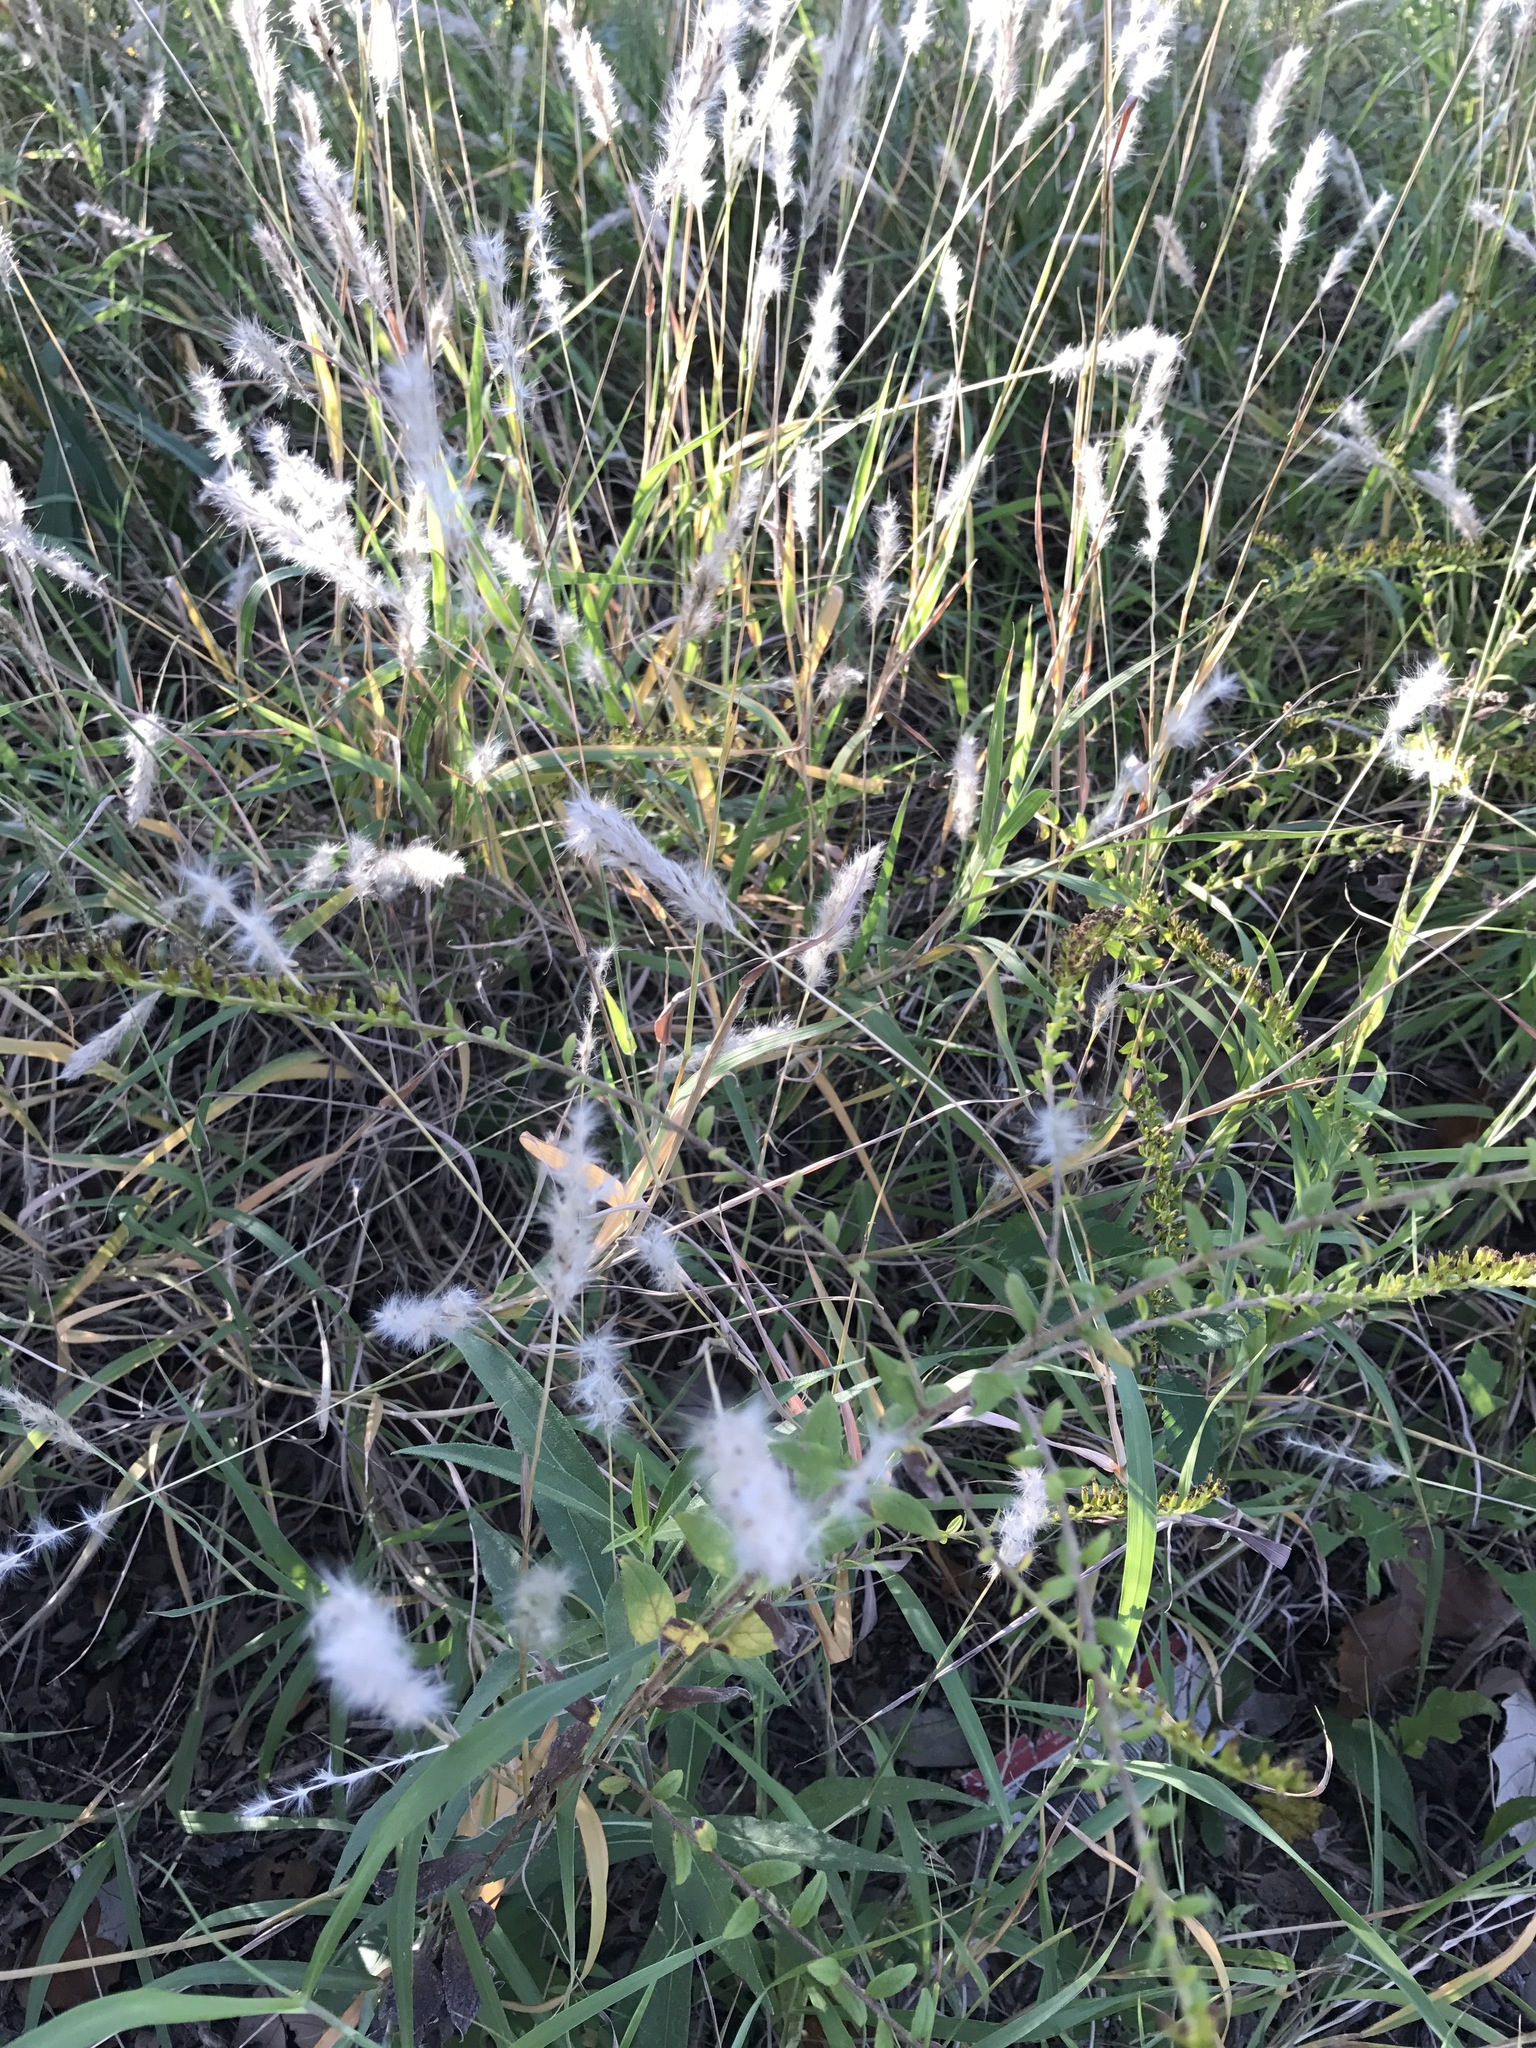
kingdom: Plantae
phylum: Tracheophyta
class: Liliopsida
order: Poales
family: Poaceae
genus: Bothriochloa
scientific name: Bothriochloa torreyana
